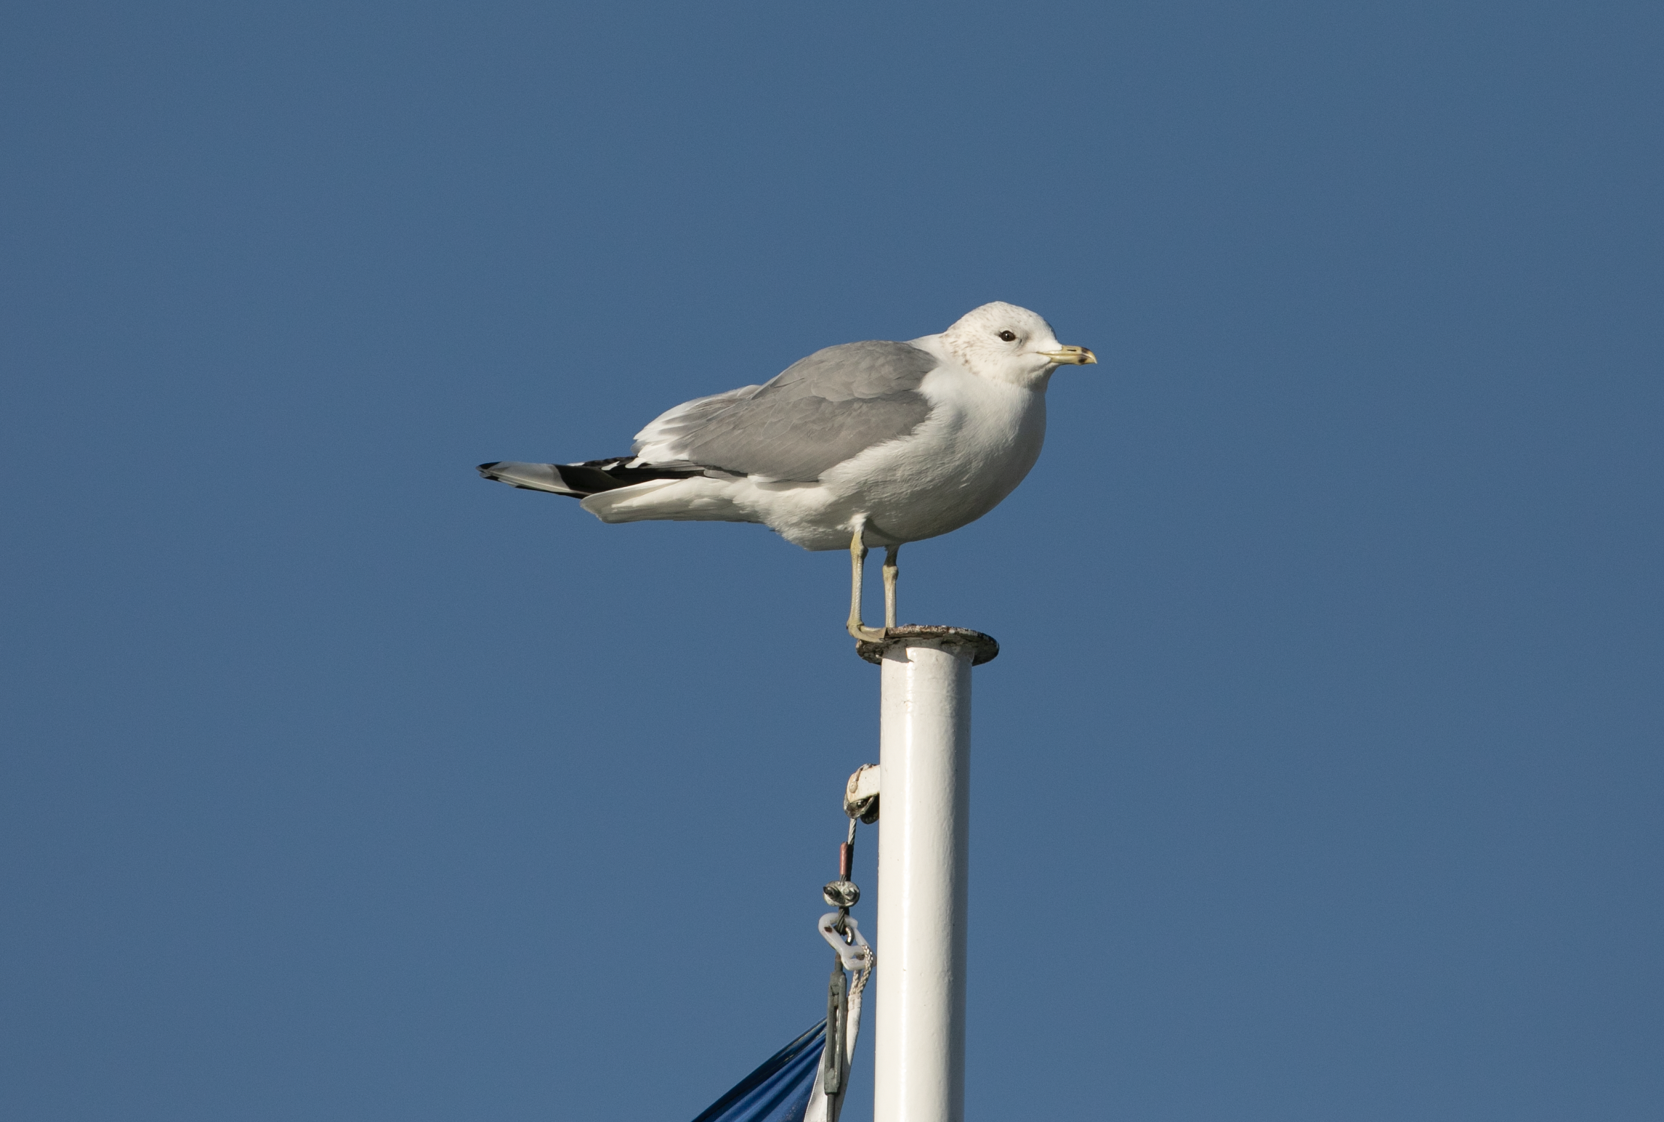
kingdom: Animalia
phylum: Chordata
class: Aves
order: Charadriiformes
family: Laridae
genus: Larus
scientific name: Larus canus
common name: Mew gull
